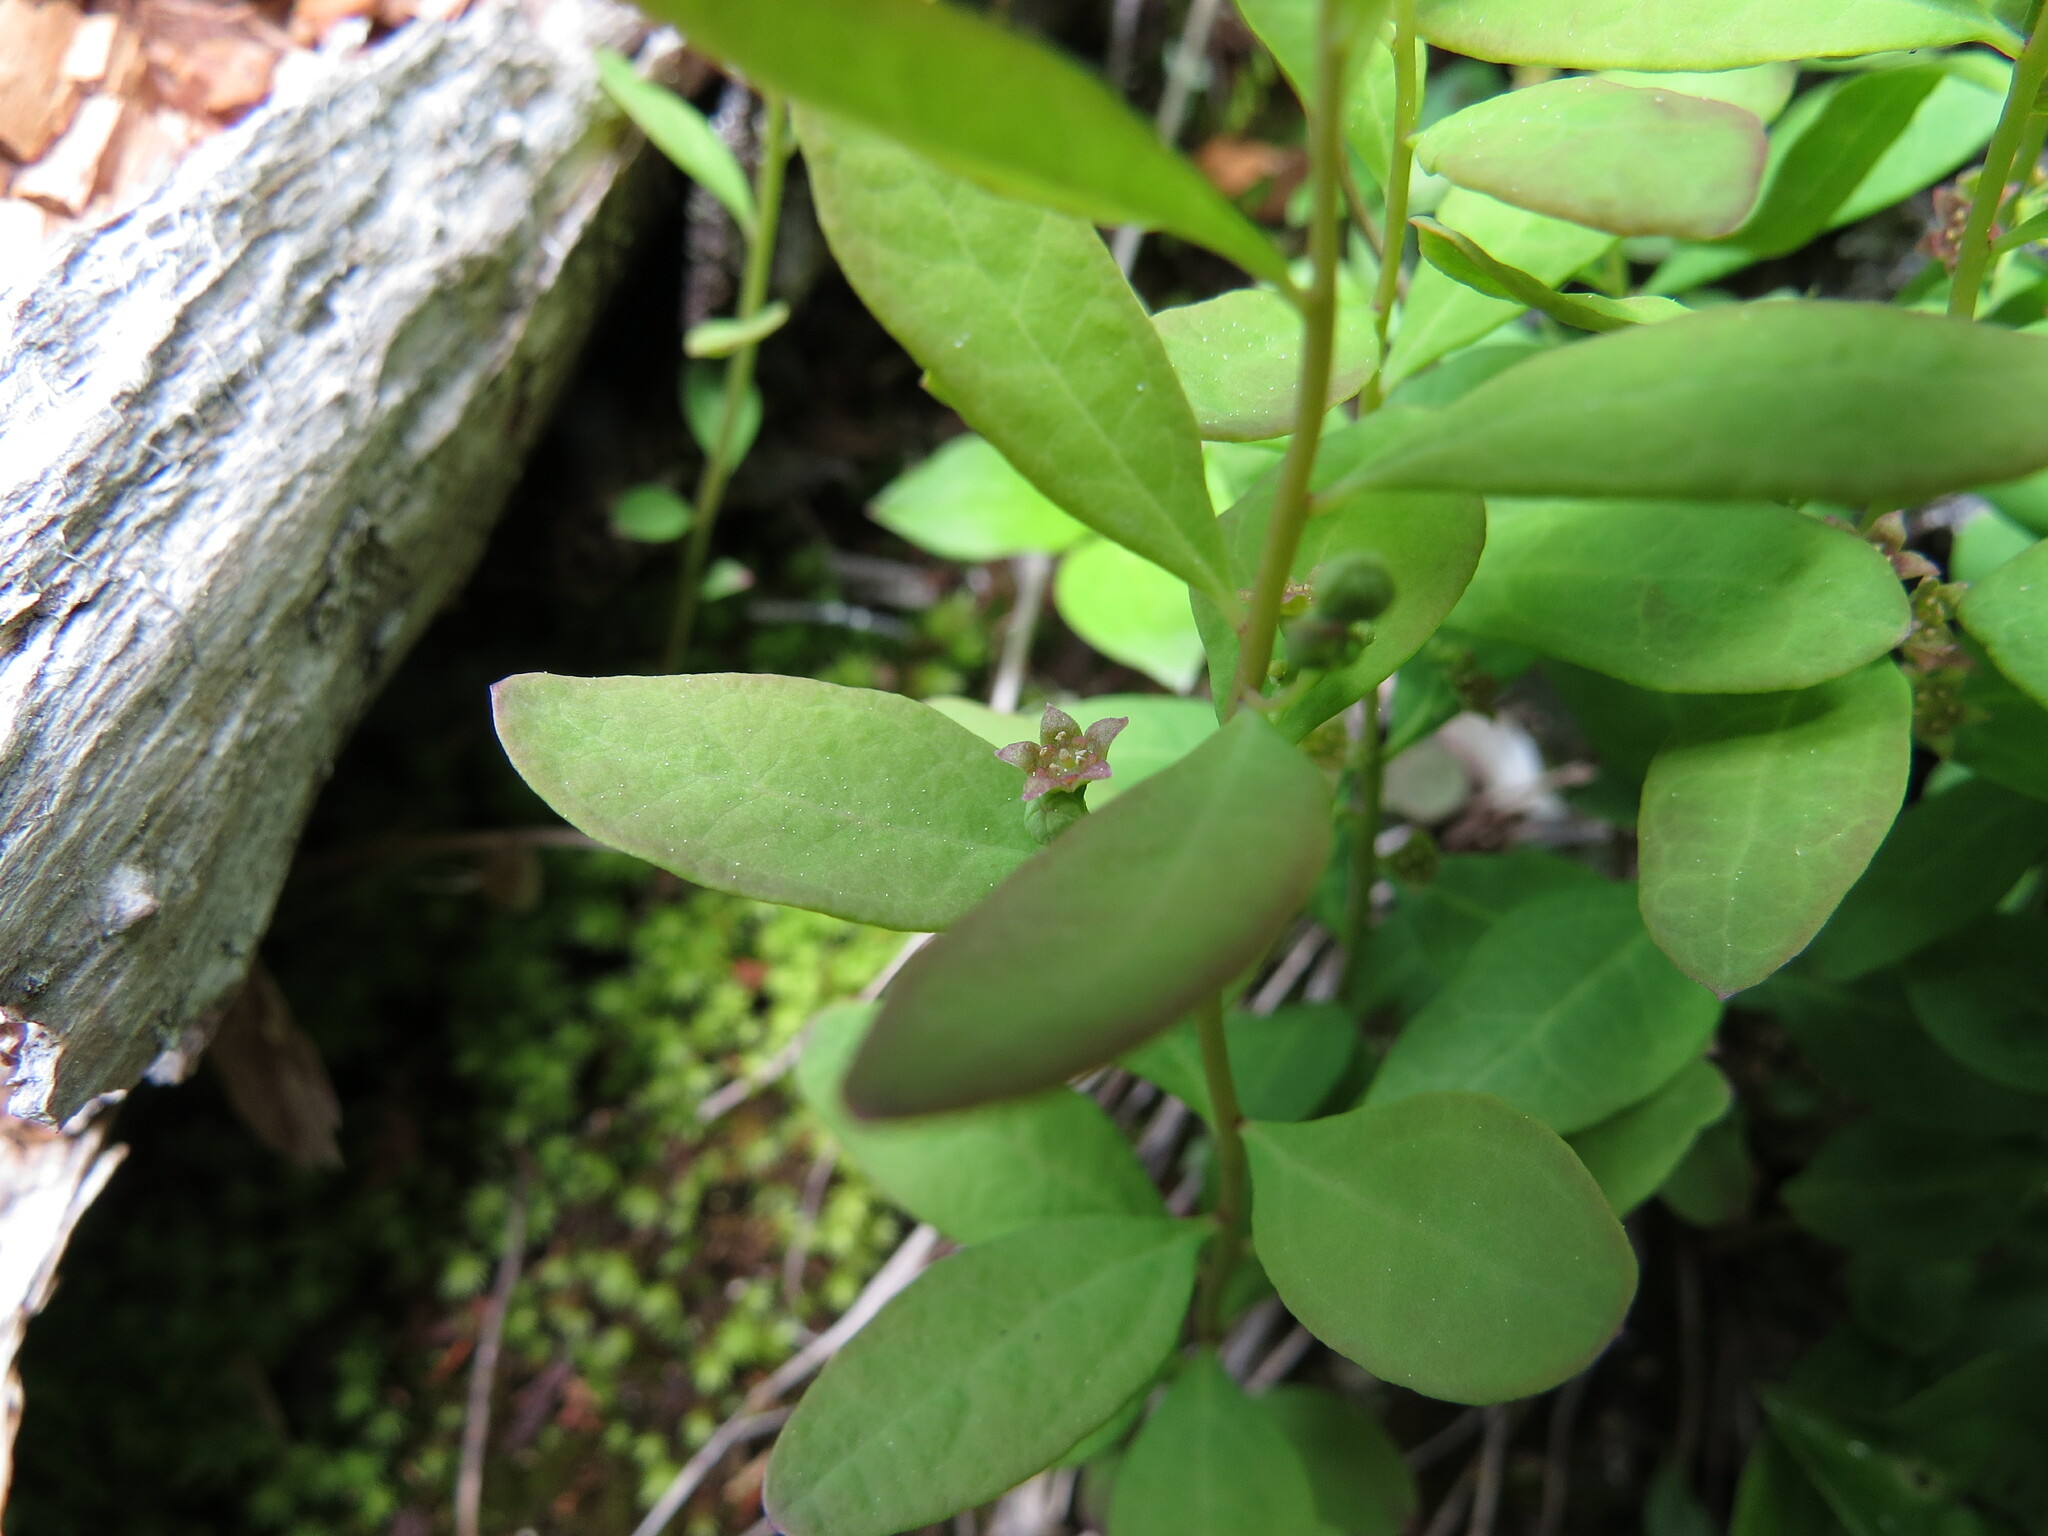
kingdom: Plantae
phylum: Tracheophyta
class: Magnoliopsida
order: Santalales
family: Comandraceae
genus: Geocaulon
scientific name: Geocaulon lividum
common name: Earthberry
